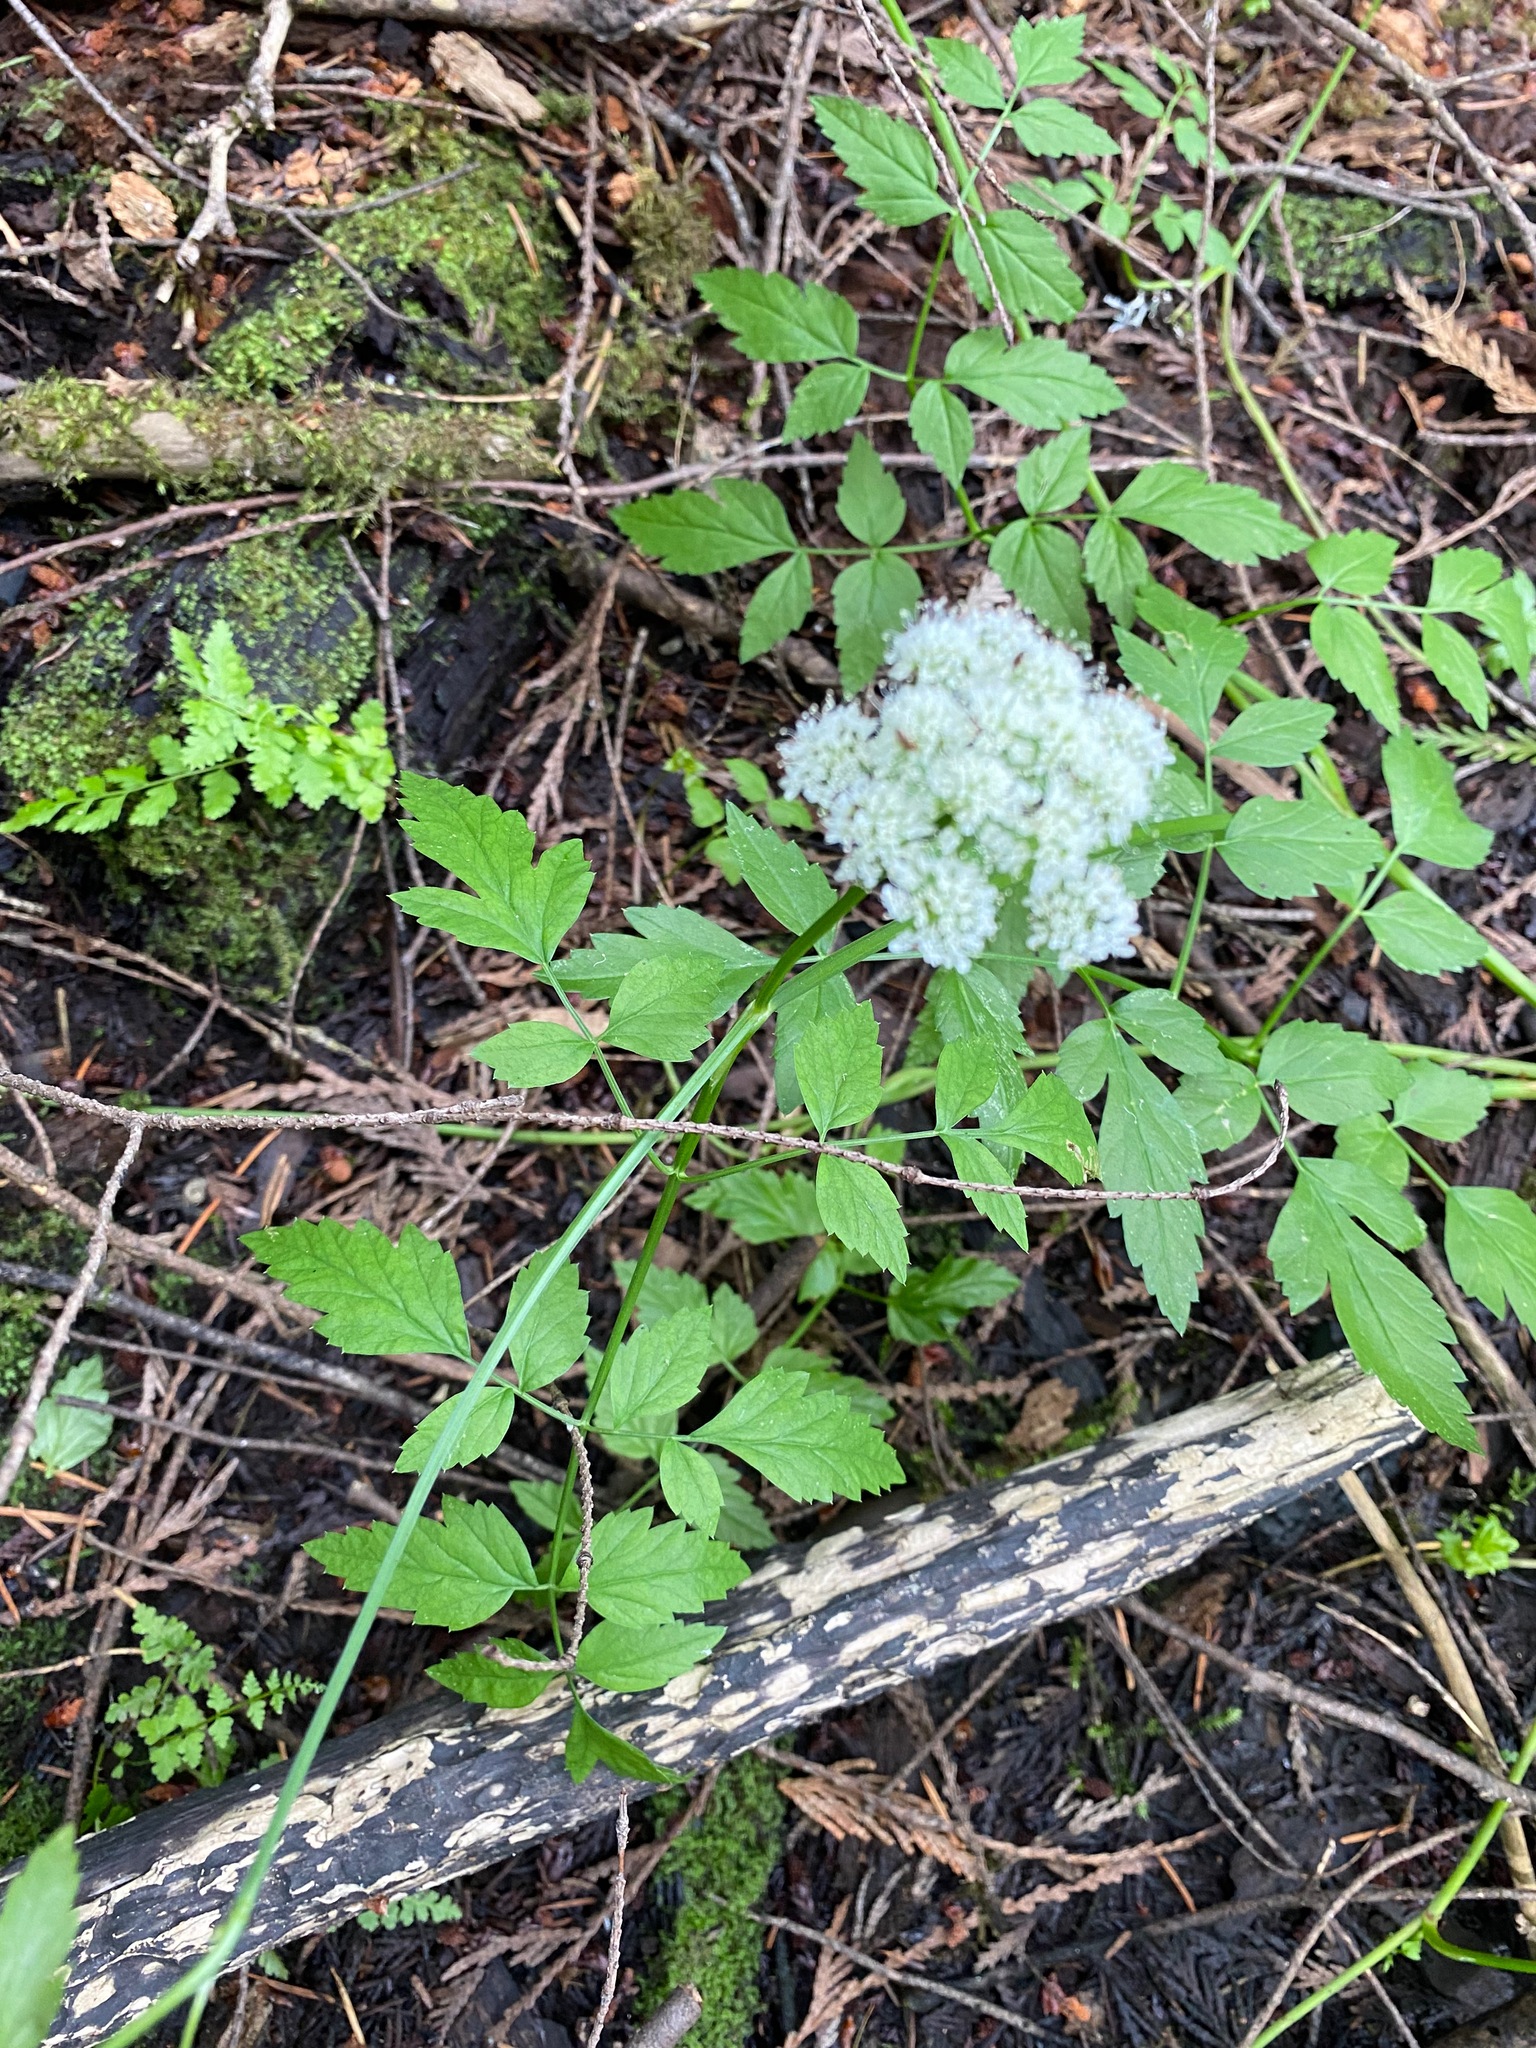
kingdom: Plantae
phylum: Tracheophyta
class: Magnoliopsida
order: Apiales
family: Apiaceae
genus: Oenanthe
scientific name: Oenanthe sarmentosa
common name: American water-parsley
